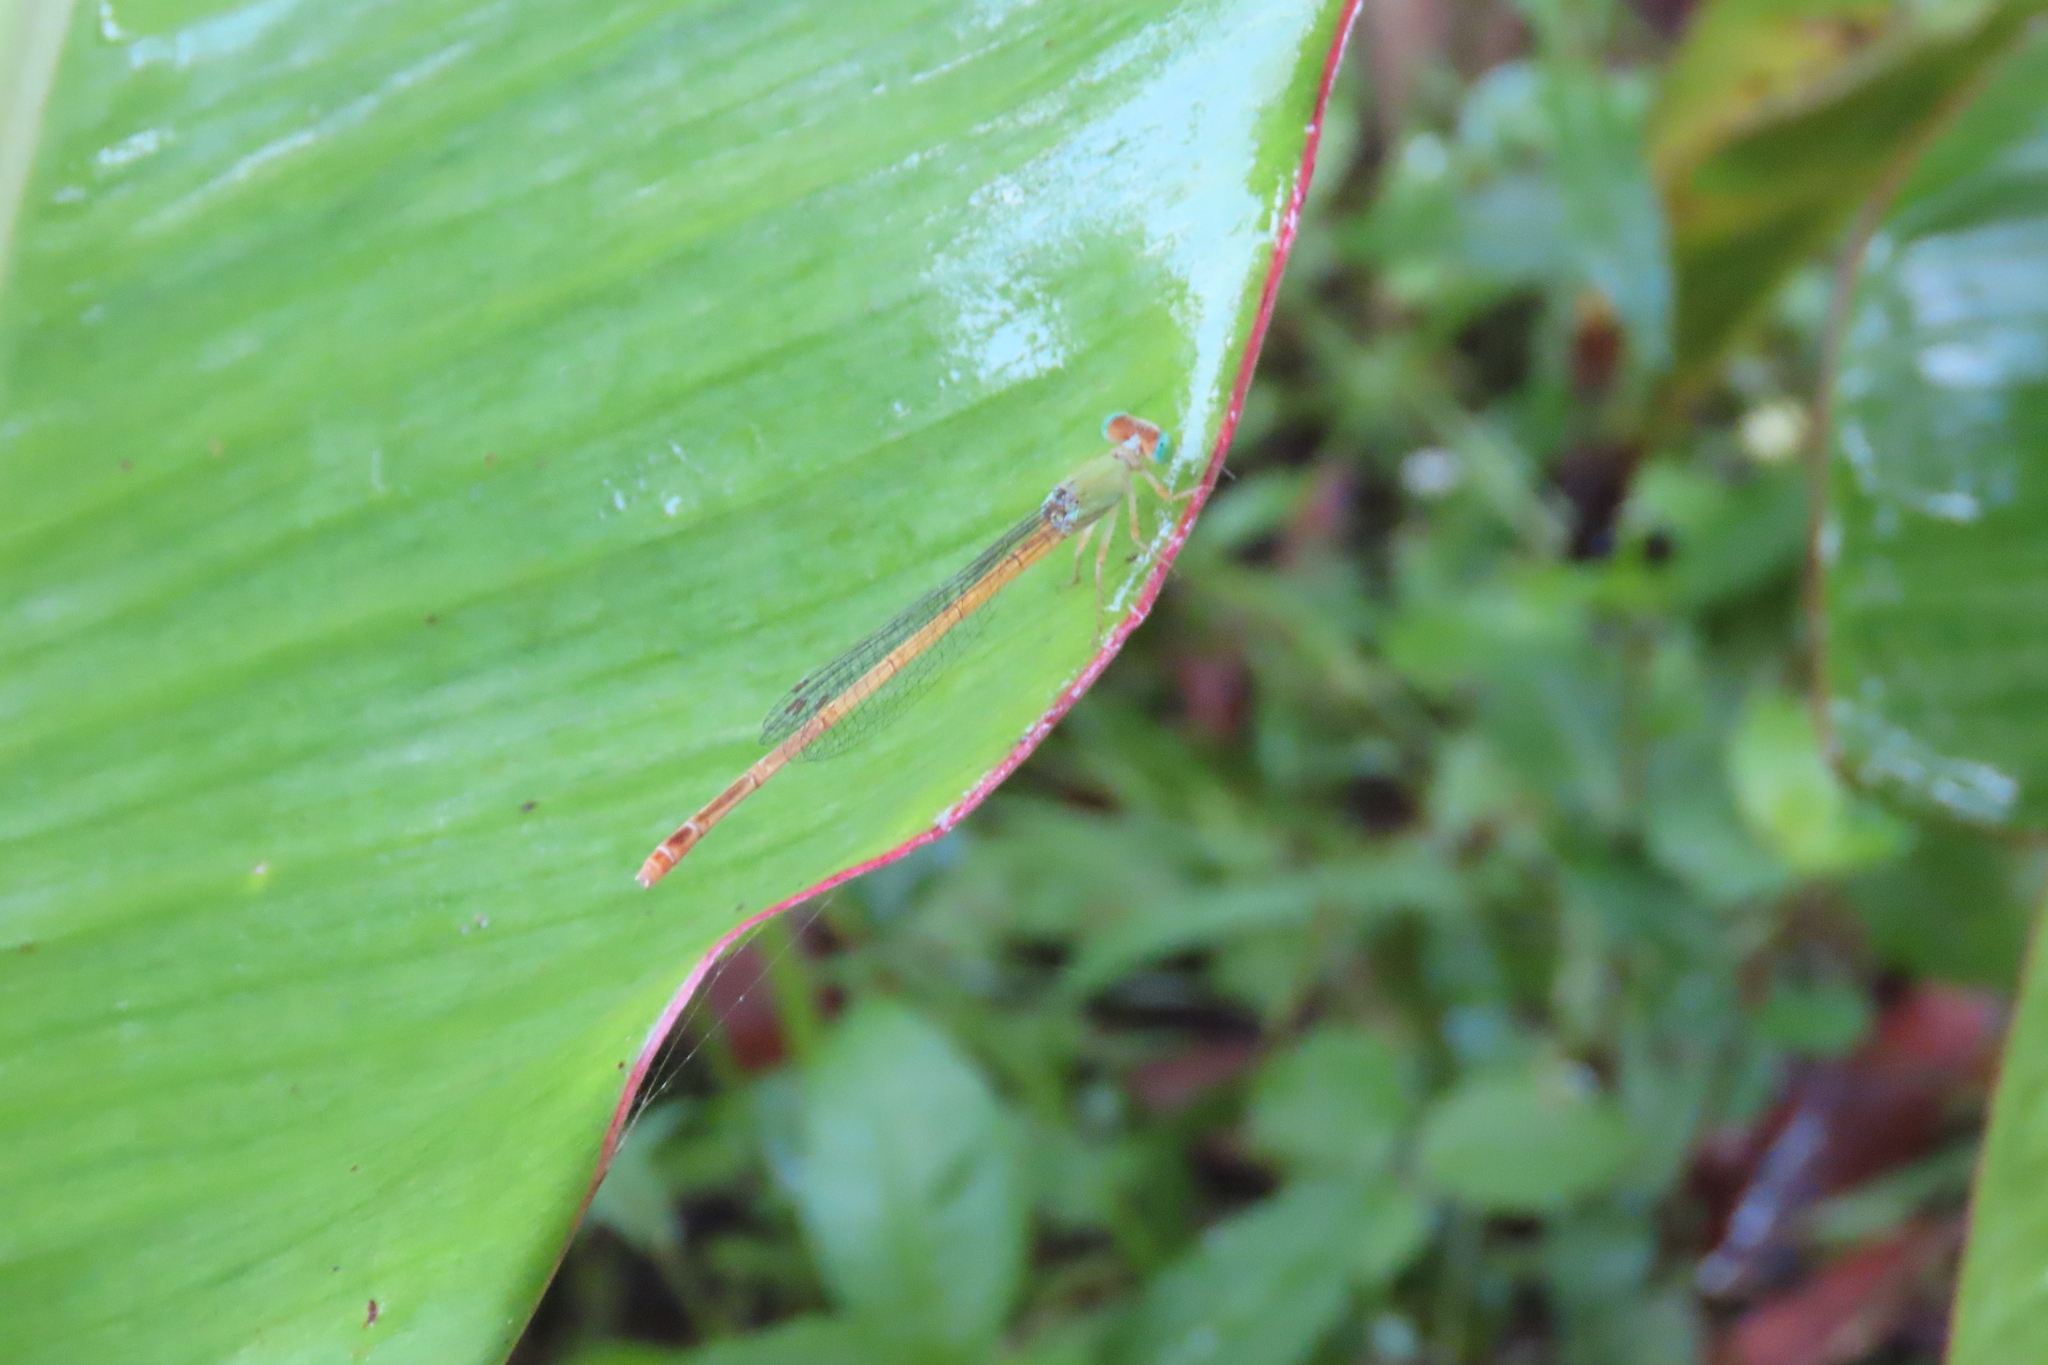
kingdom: Animalia
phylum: Arthropoda
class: Insecta
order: Odonata
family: Coenagrionidae
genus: Ceriagrion
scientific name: Ceriagrion coromandelianum
